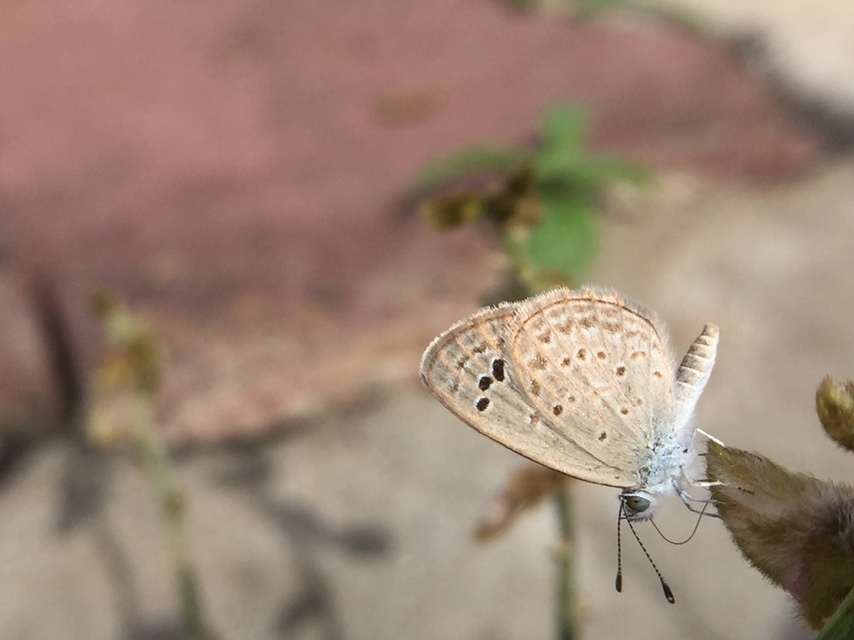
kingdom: Animalia
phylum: Arthropoda
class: Insecta
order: Lepidoptera
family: Lycaenidae
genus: Zizina
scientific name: Zizina otis
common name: Lesser grass blue
